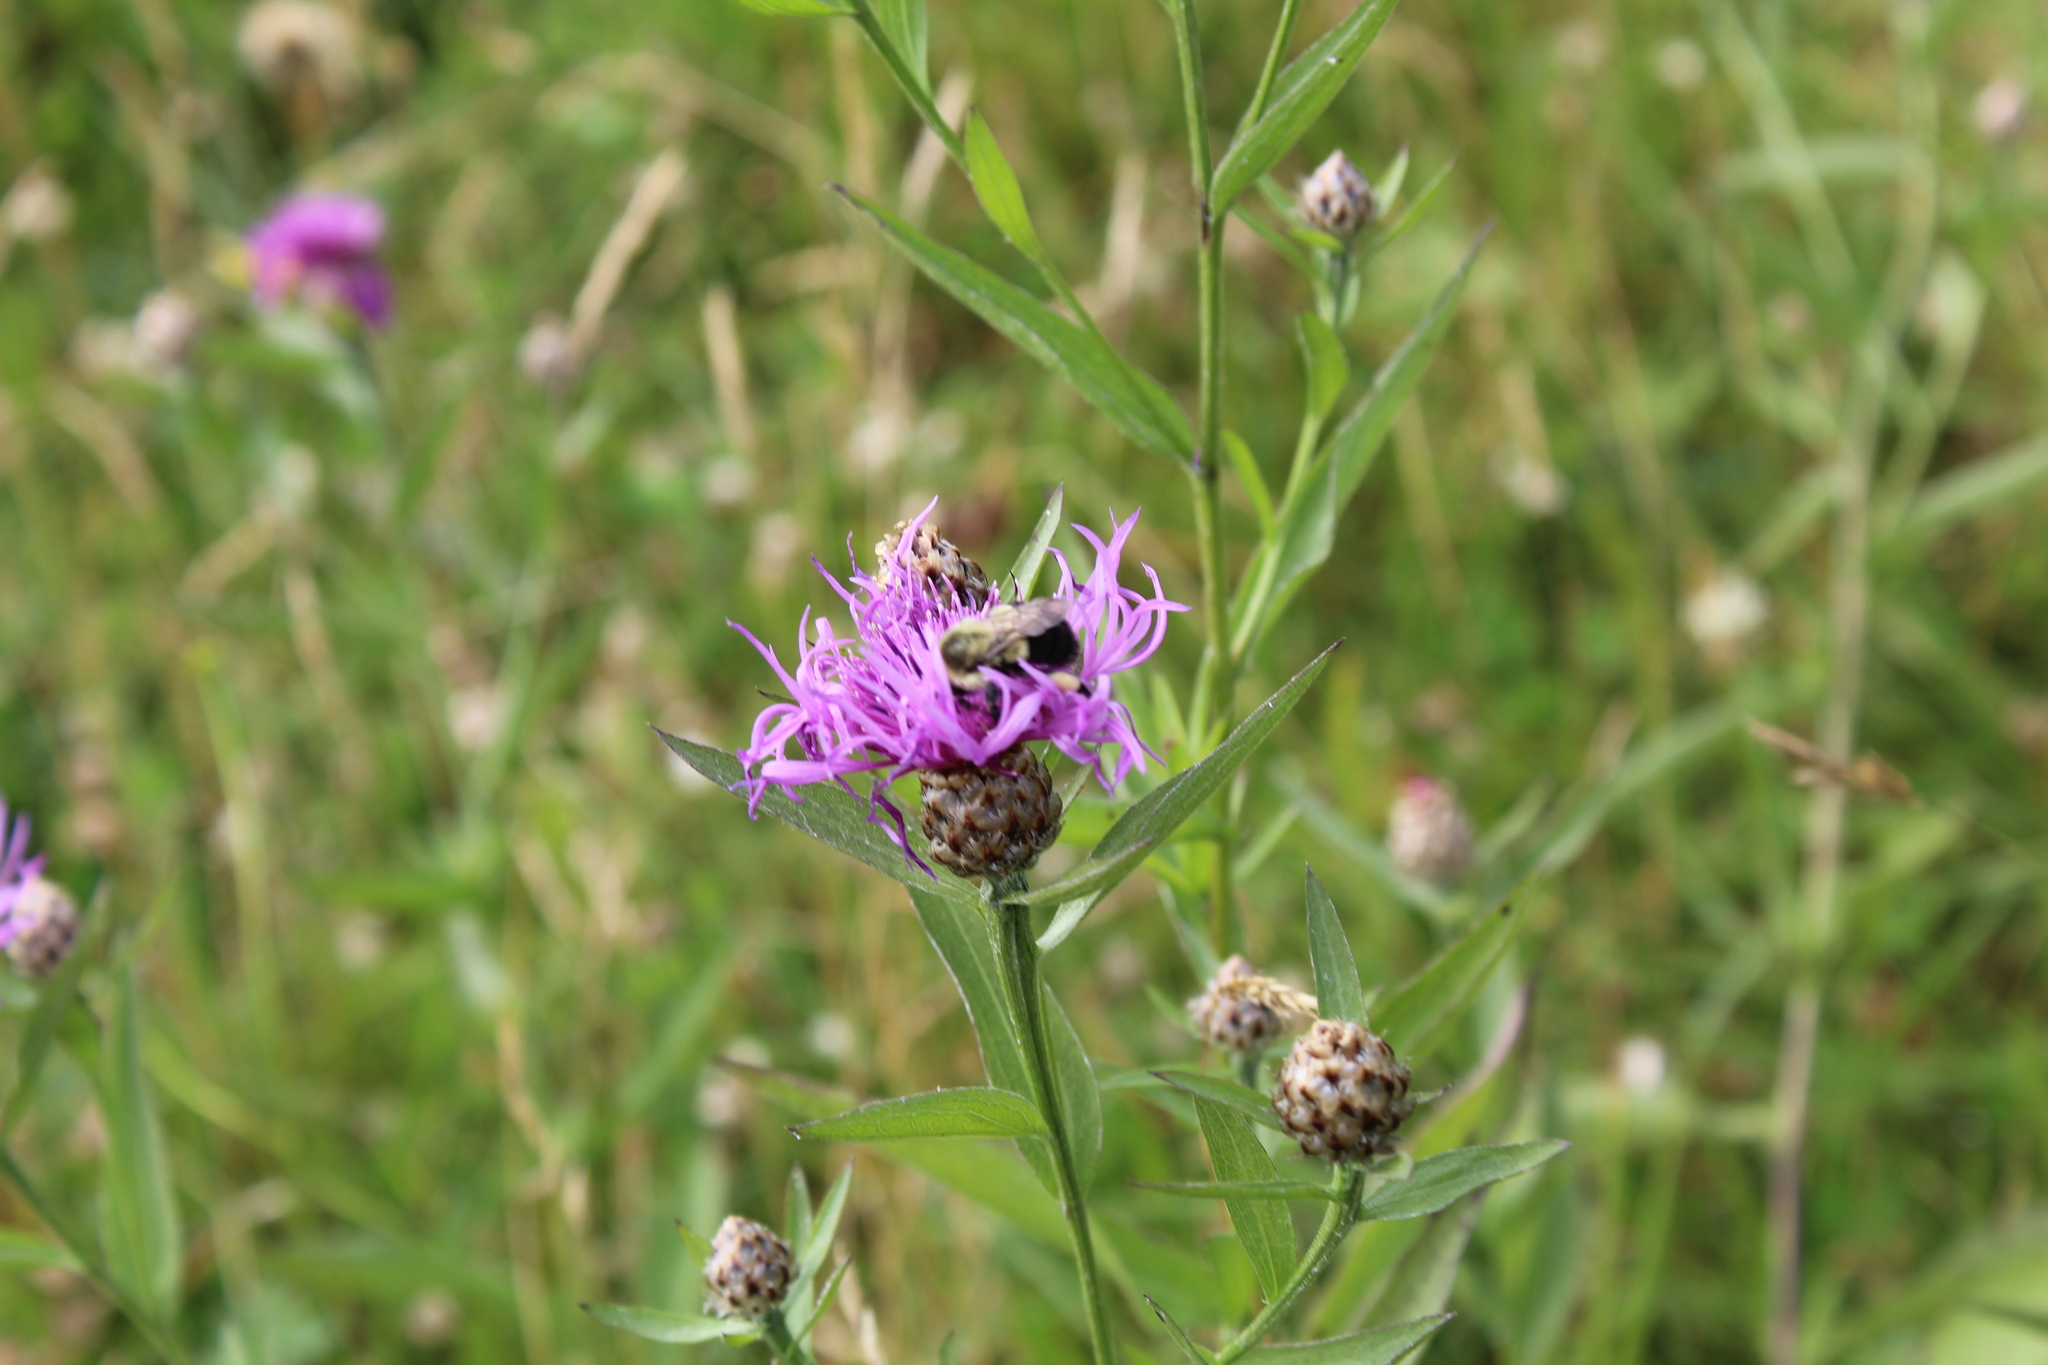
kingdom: Animalia
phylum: Arthropoda
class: Insecta
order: Hymenoptera
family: Apidae
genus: Bombus
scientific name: Bombus impatiens
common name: Common eastern bumble bee
